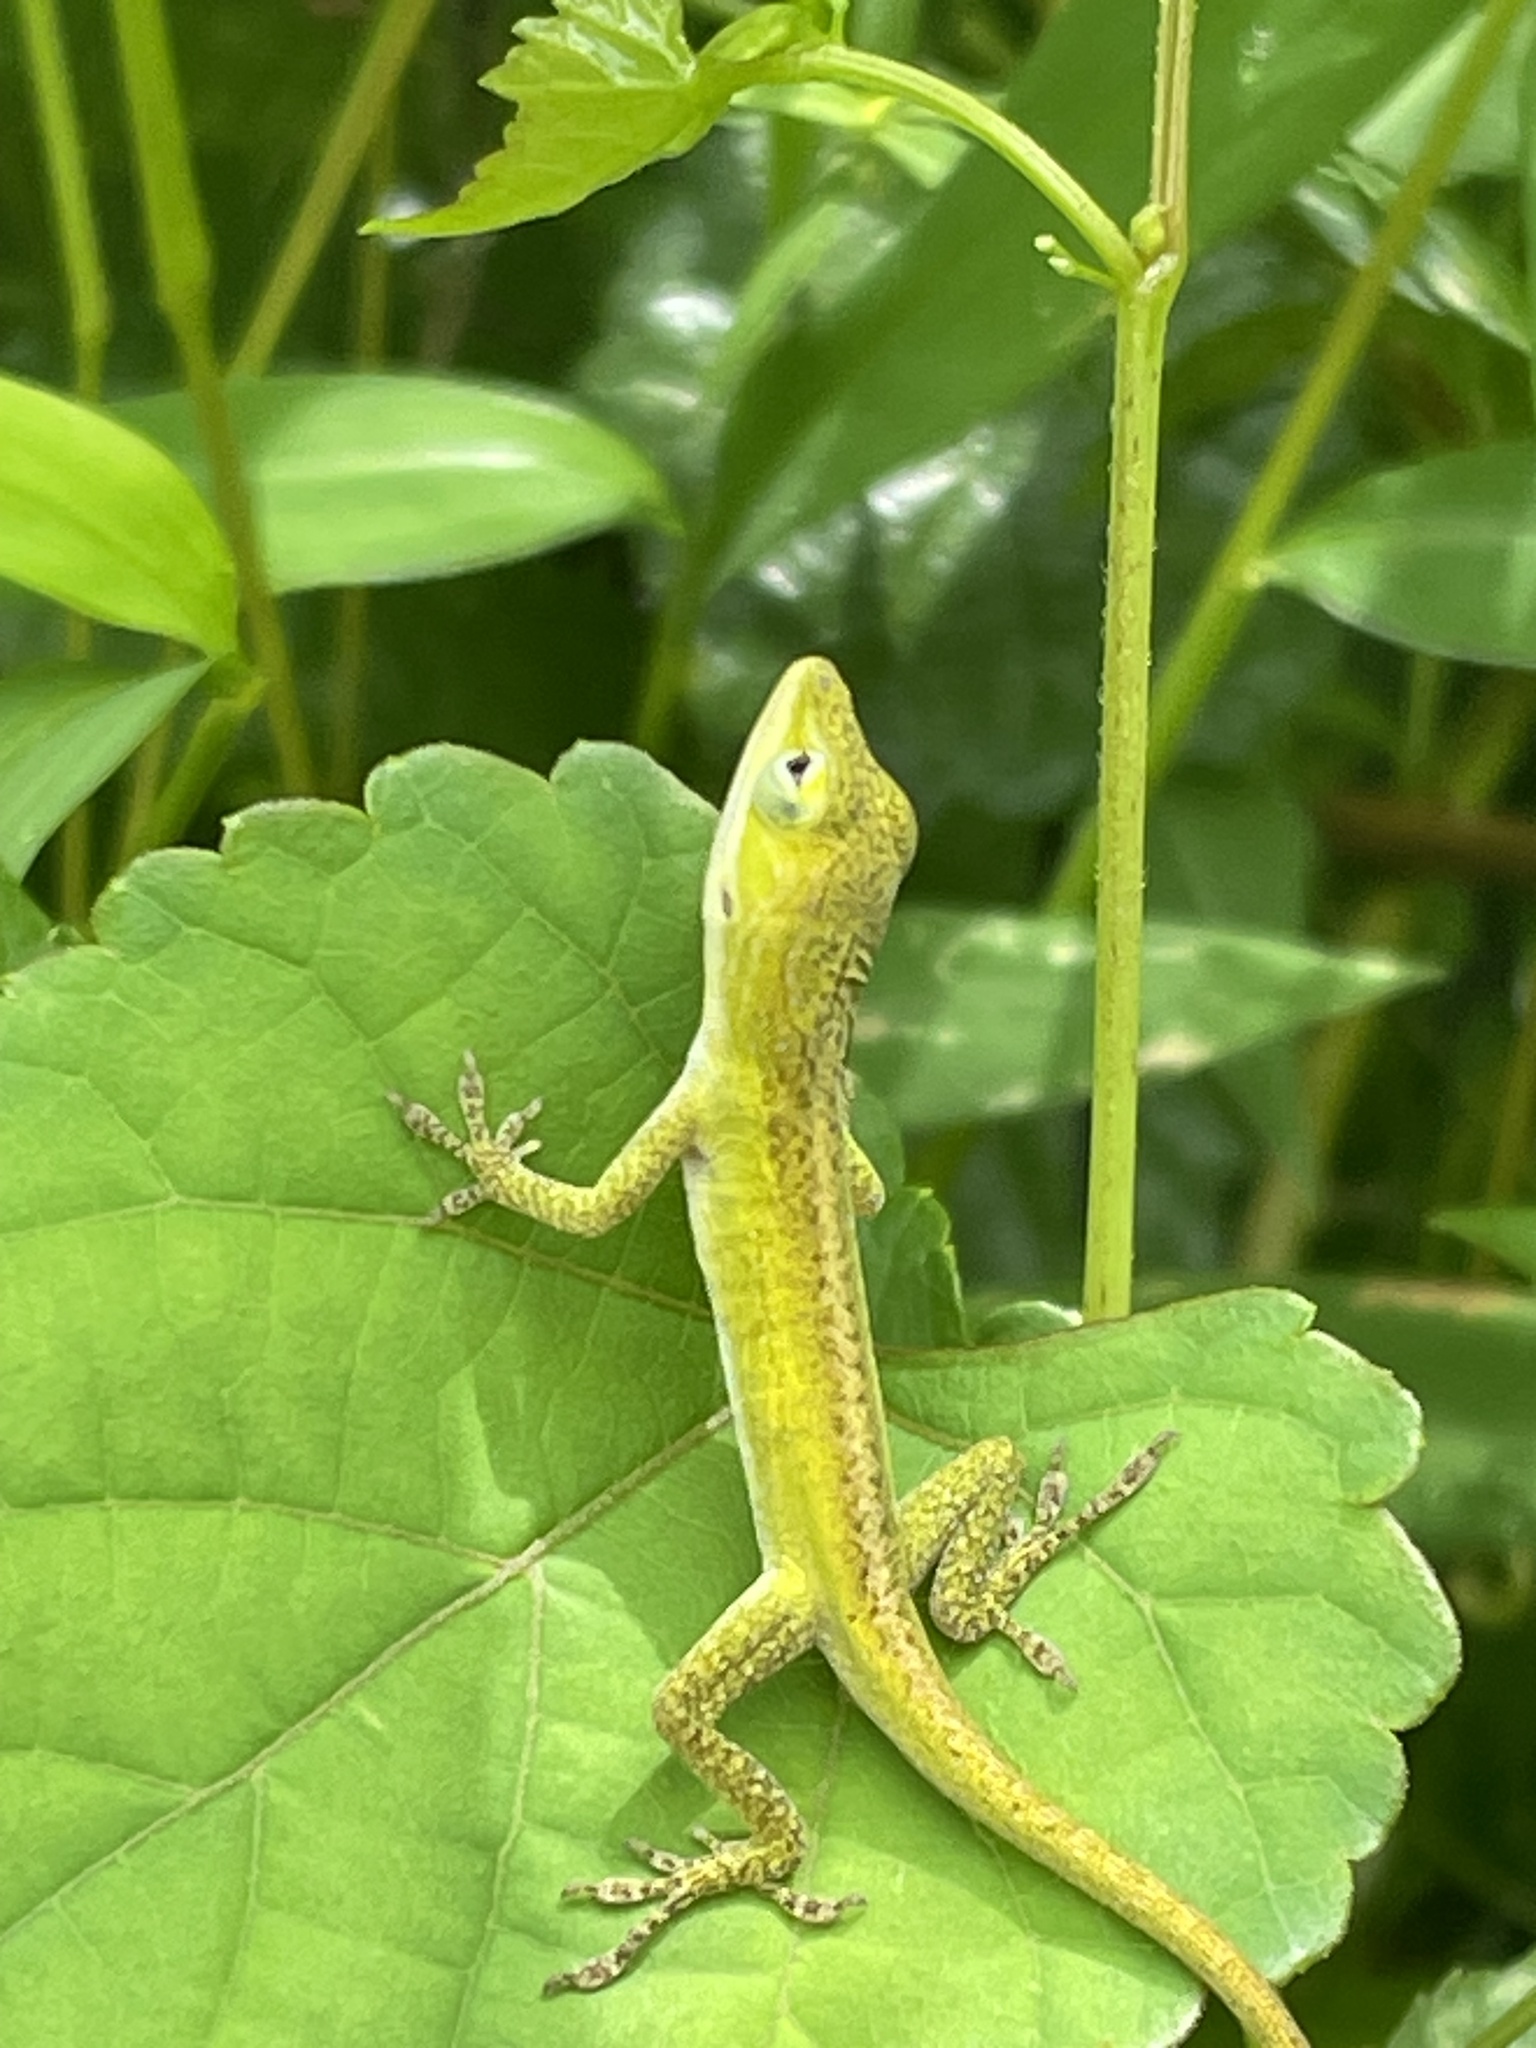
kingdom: Animalia
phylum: Chordata
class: Squamata
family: Dactyloidae
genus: Anolis
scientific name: Anolis carolinensis
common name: Green anole
